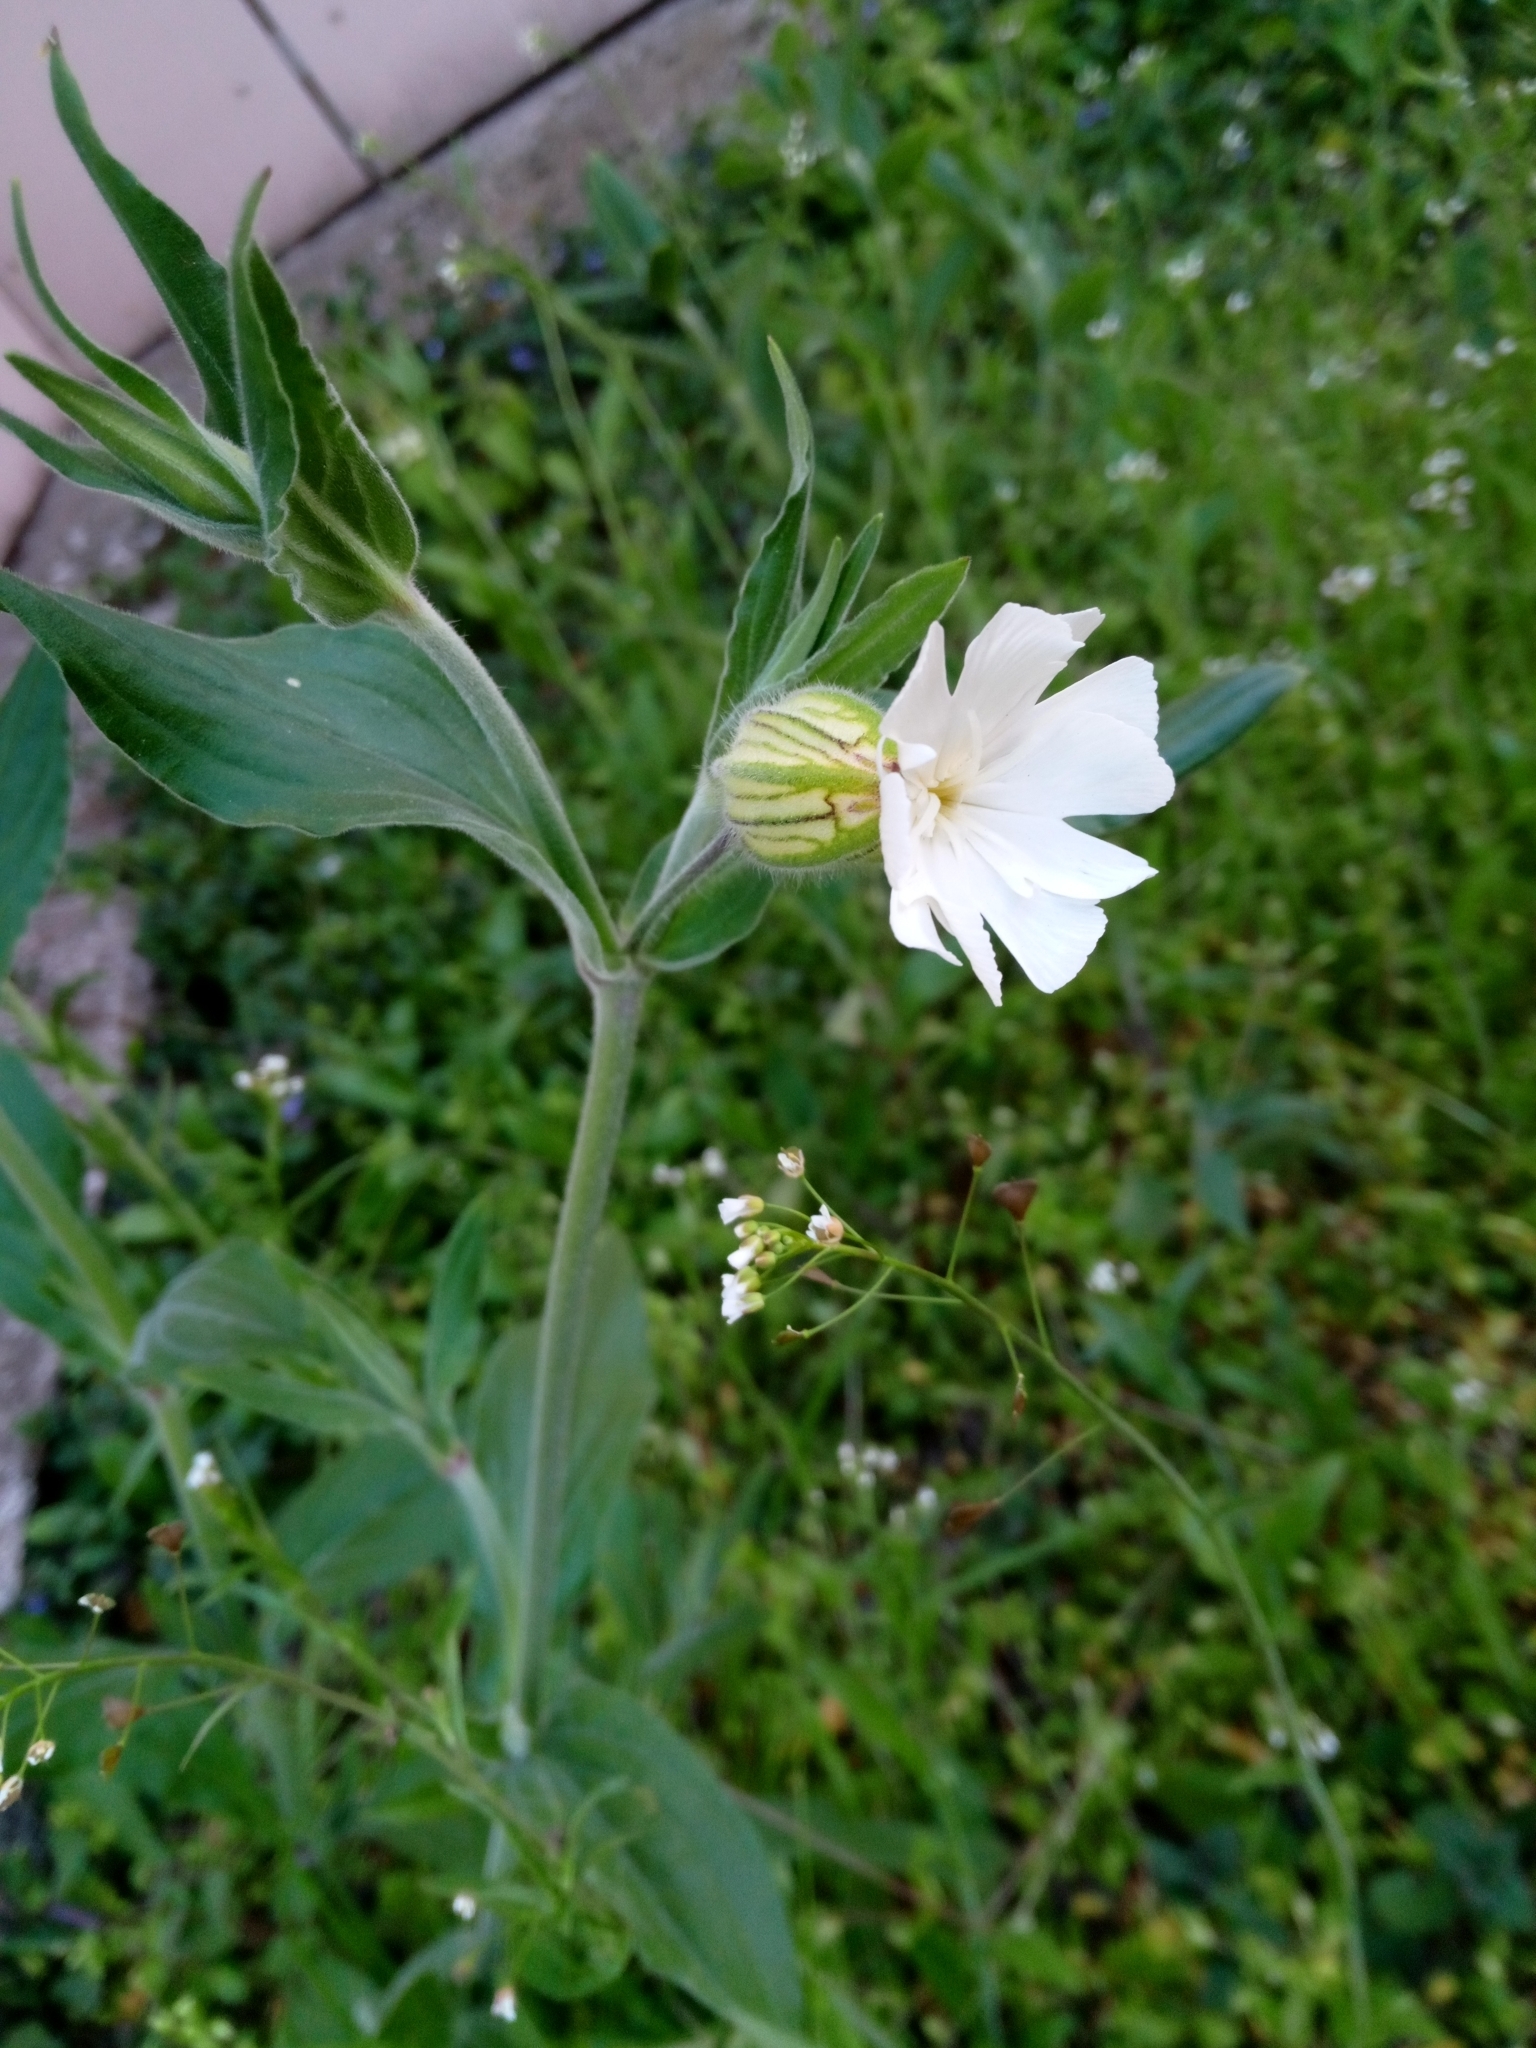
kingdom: Plantae
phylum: Tracheophyta
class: Magnoliopsida
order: Caryophyllales
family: Caryophyllaceae
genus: Silene
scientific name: Silene latifolia
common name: White campion
